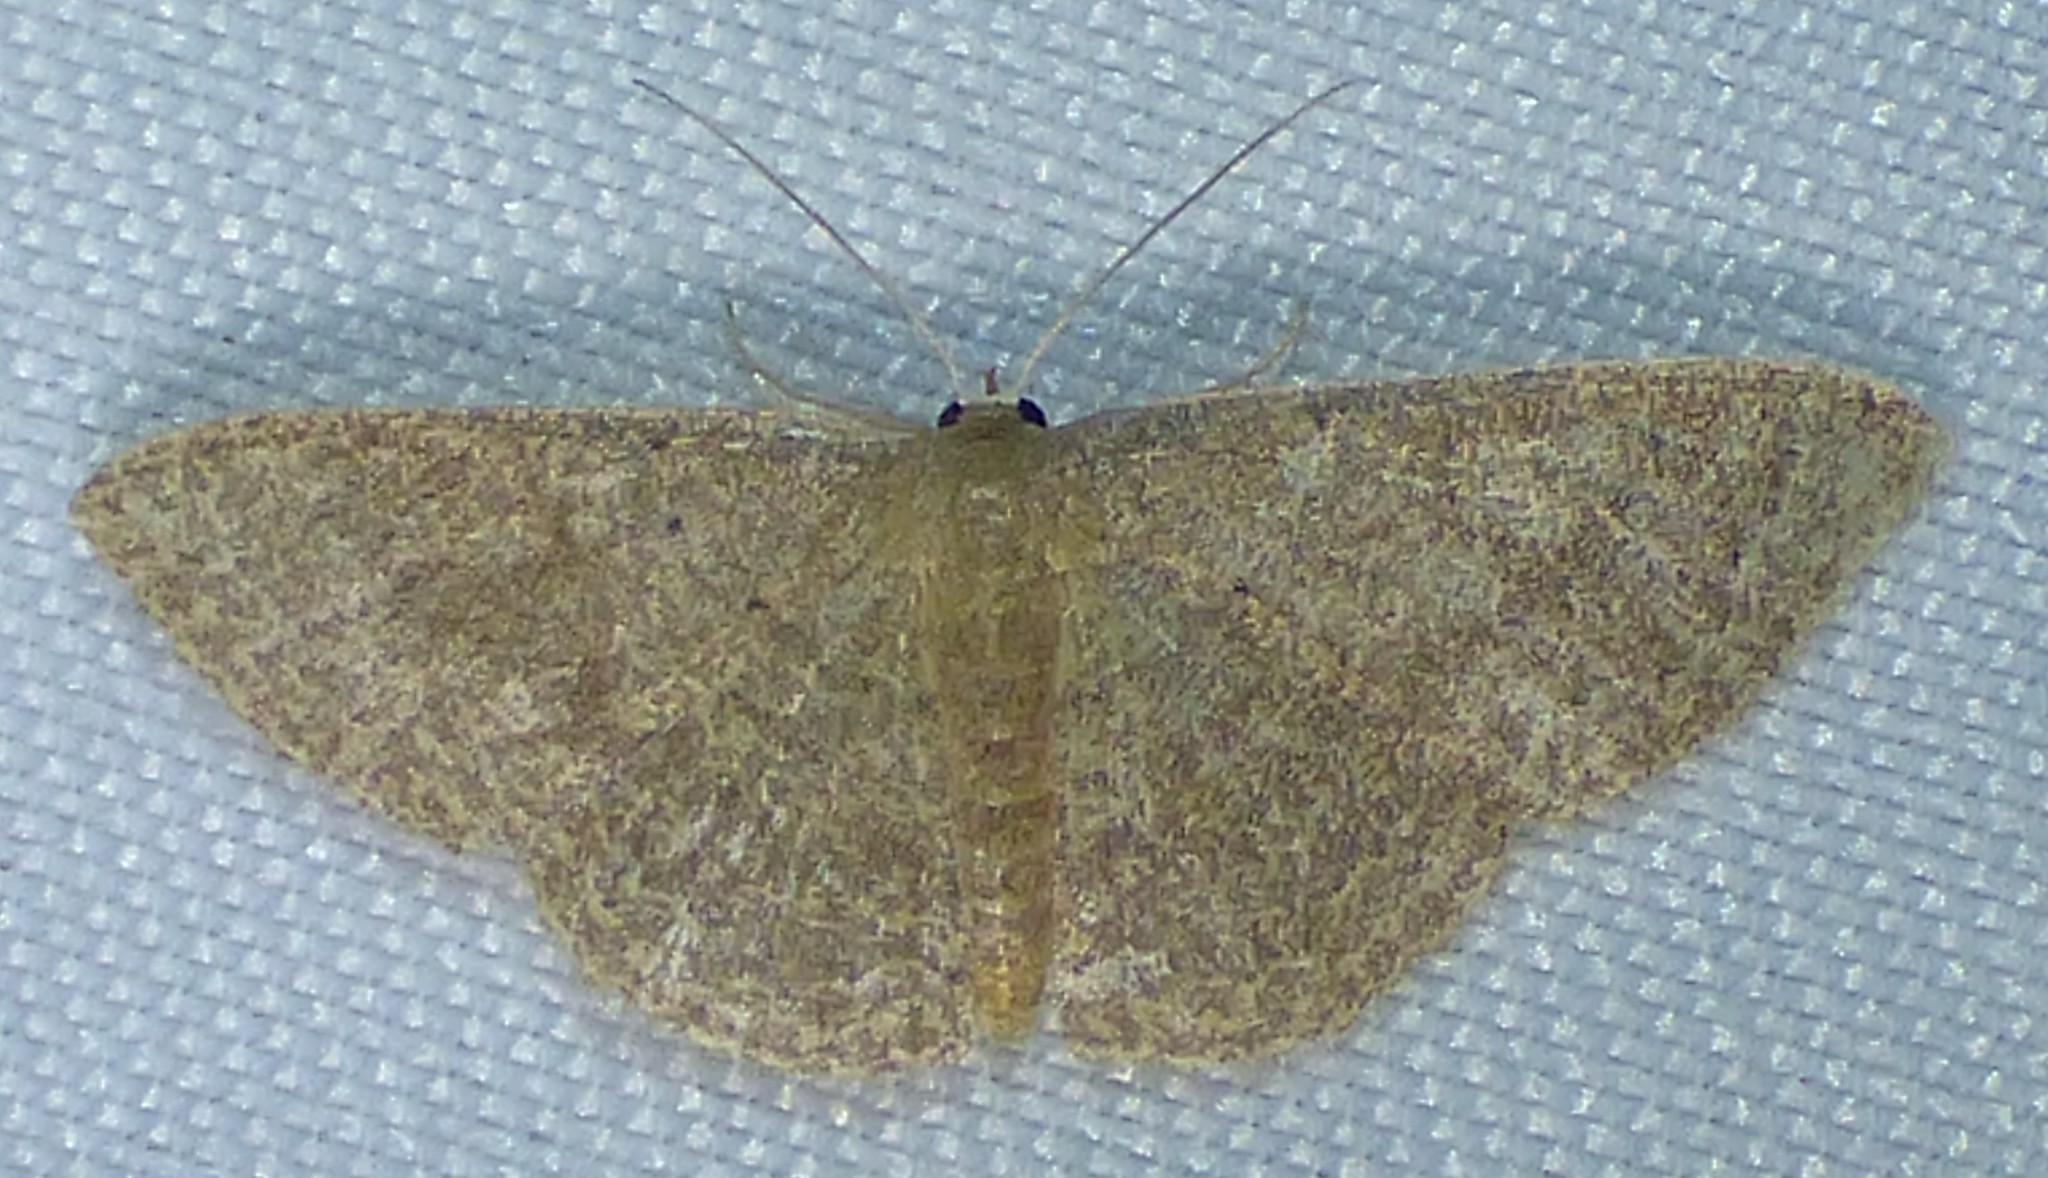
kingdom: Animalia
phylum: Arthropoda
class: Insecta
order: Lepidoptera
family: Geometridae
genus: Pleuroprucha
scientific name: Pleuroprucha insulsaria
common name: Common tan wave
